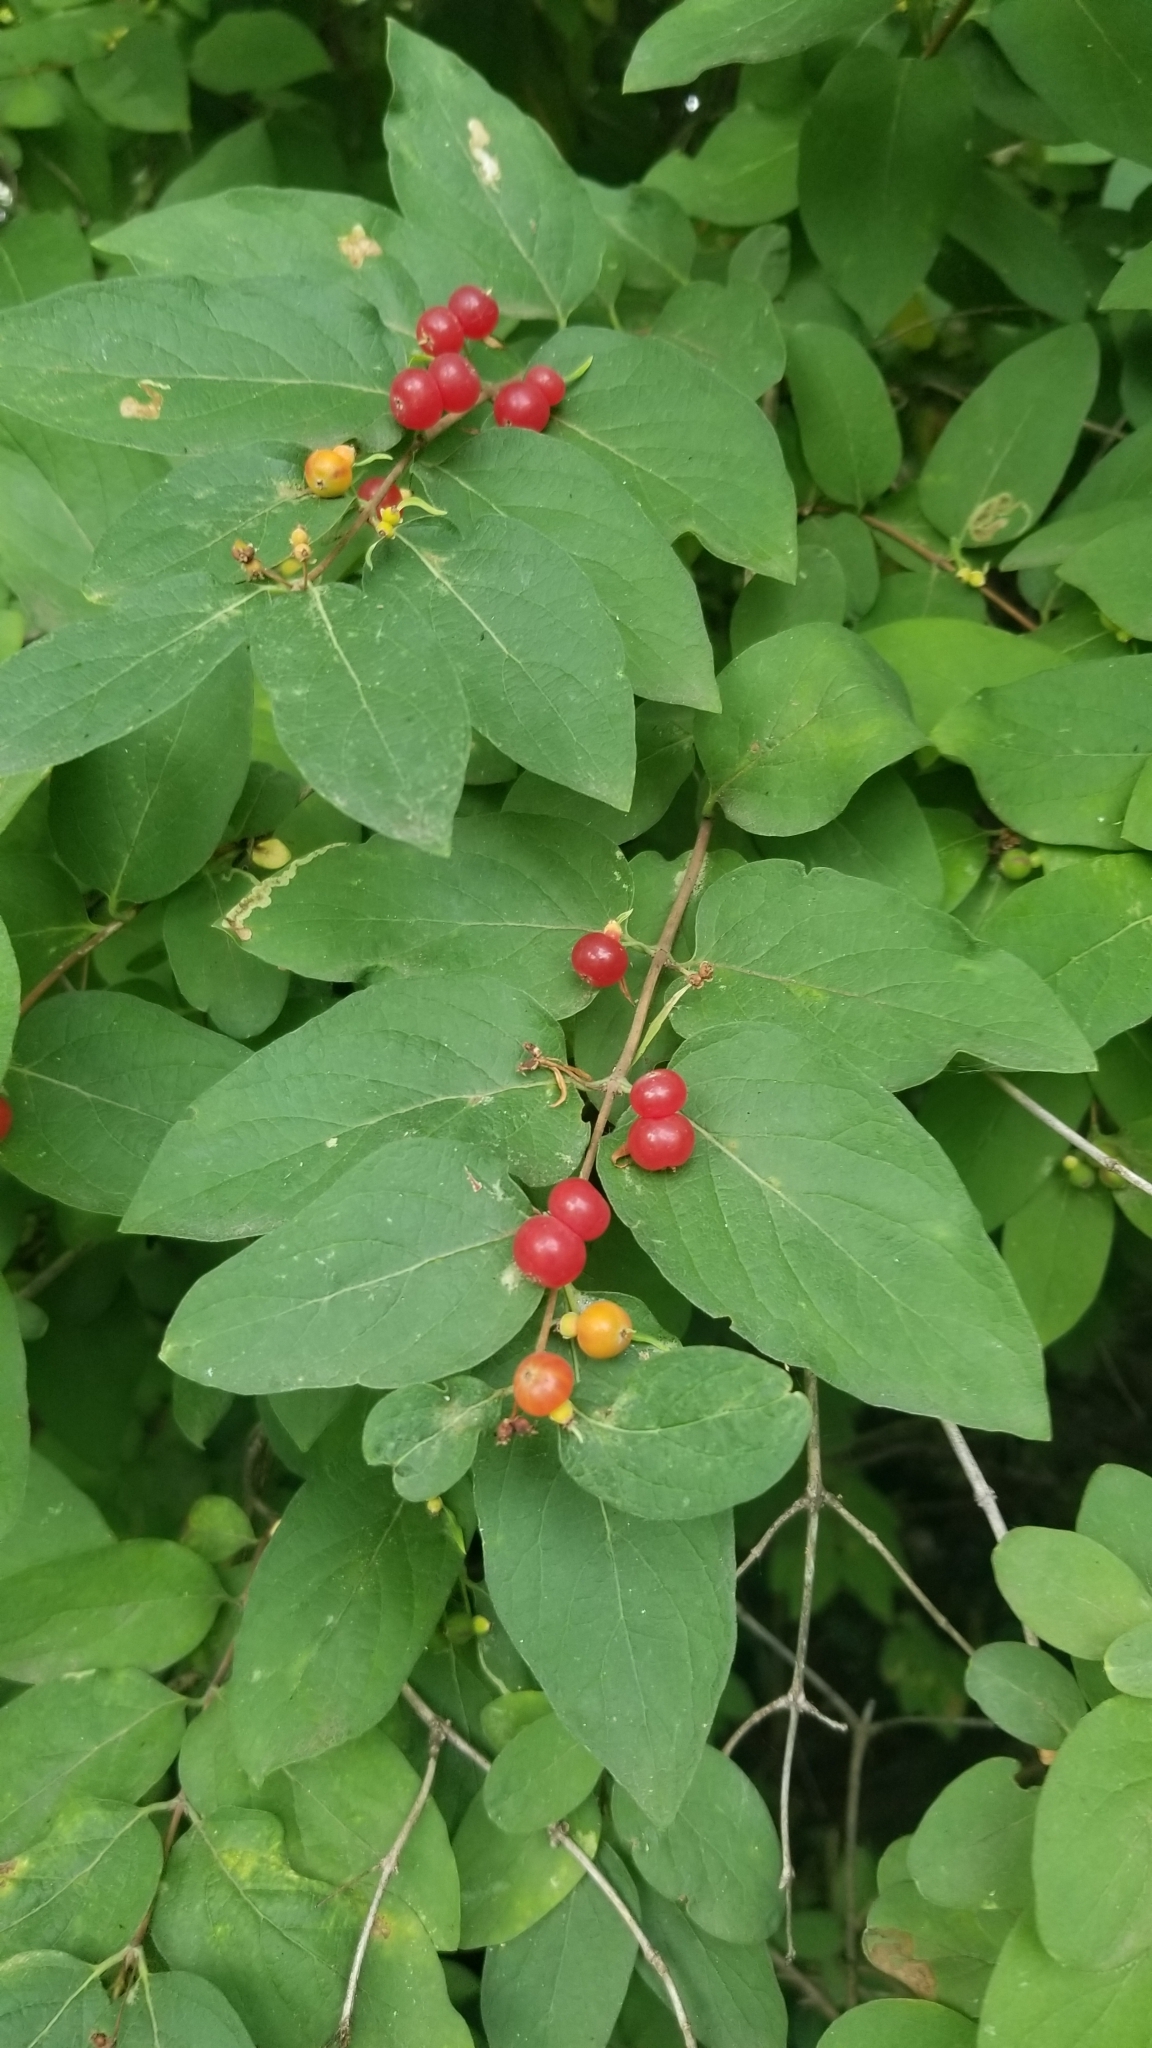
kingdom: Plantae
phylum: Tracheophyta
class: Magnoliopsida
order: Dipsacales
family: Caprifoliaceae
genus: Lonicera
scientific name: Lonicera
